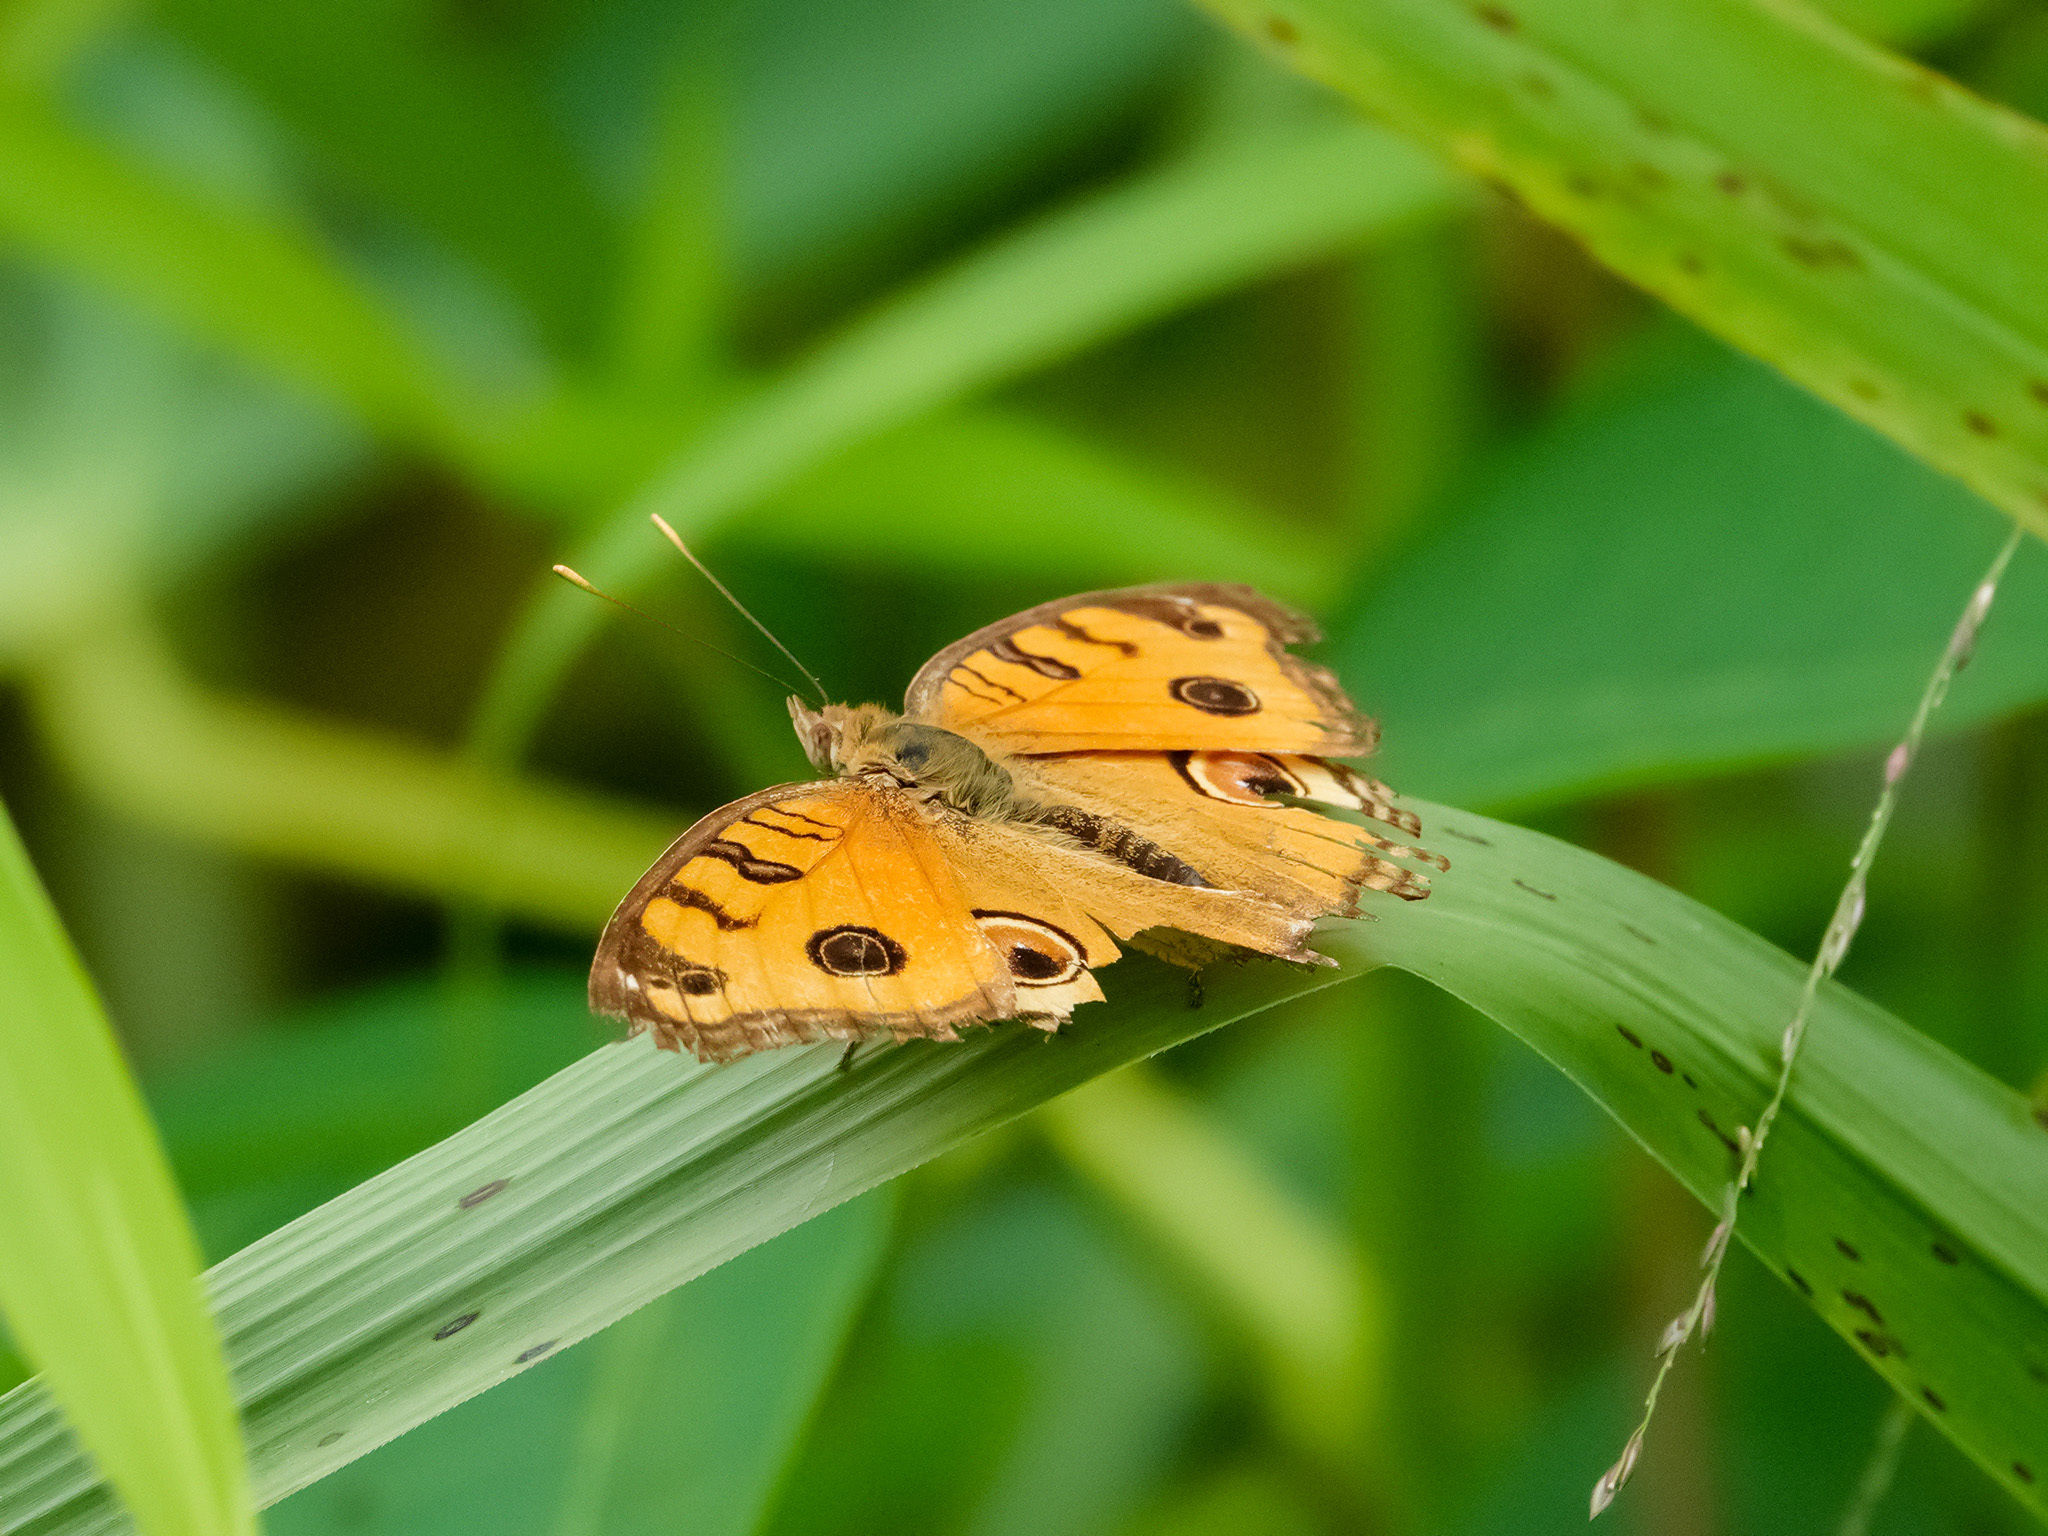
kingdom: Animalia
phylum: Arthropoda
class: Insecta
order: Lepidoptera
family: Nymphalidae
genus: Junonia
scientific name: Junonia almana
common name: Peacock pansy
